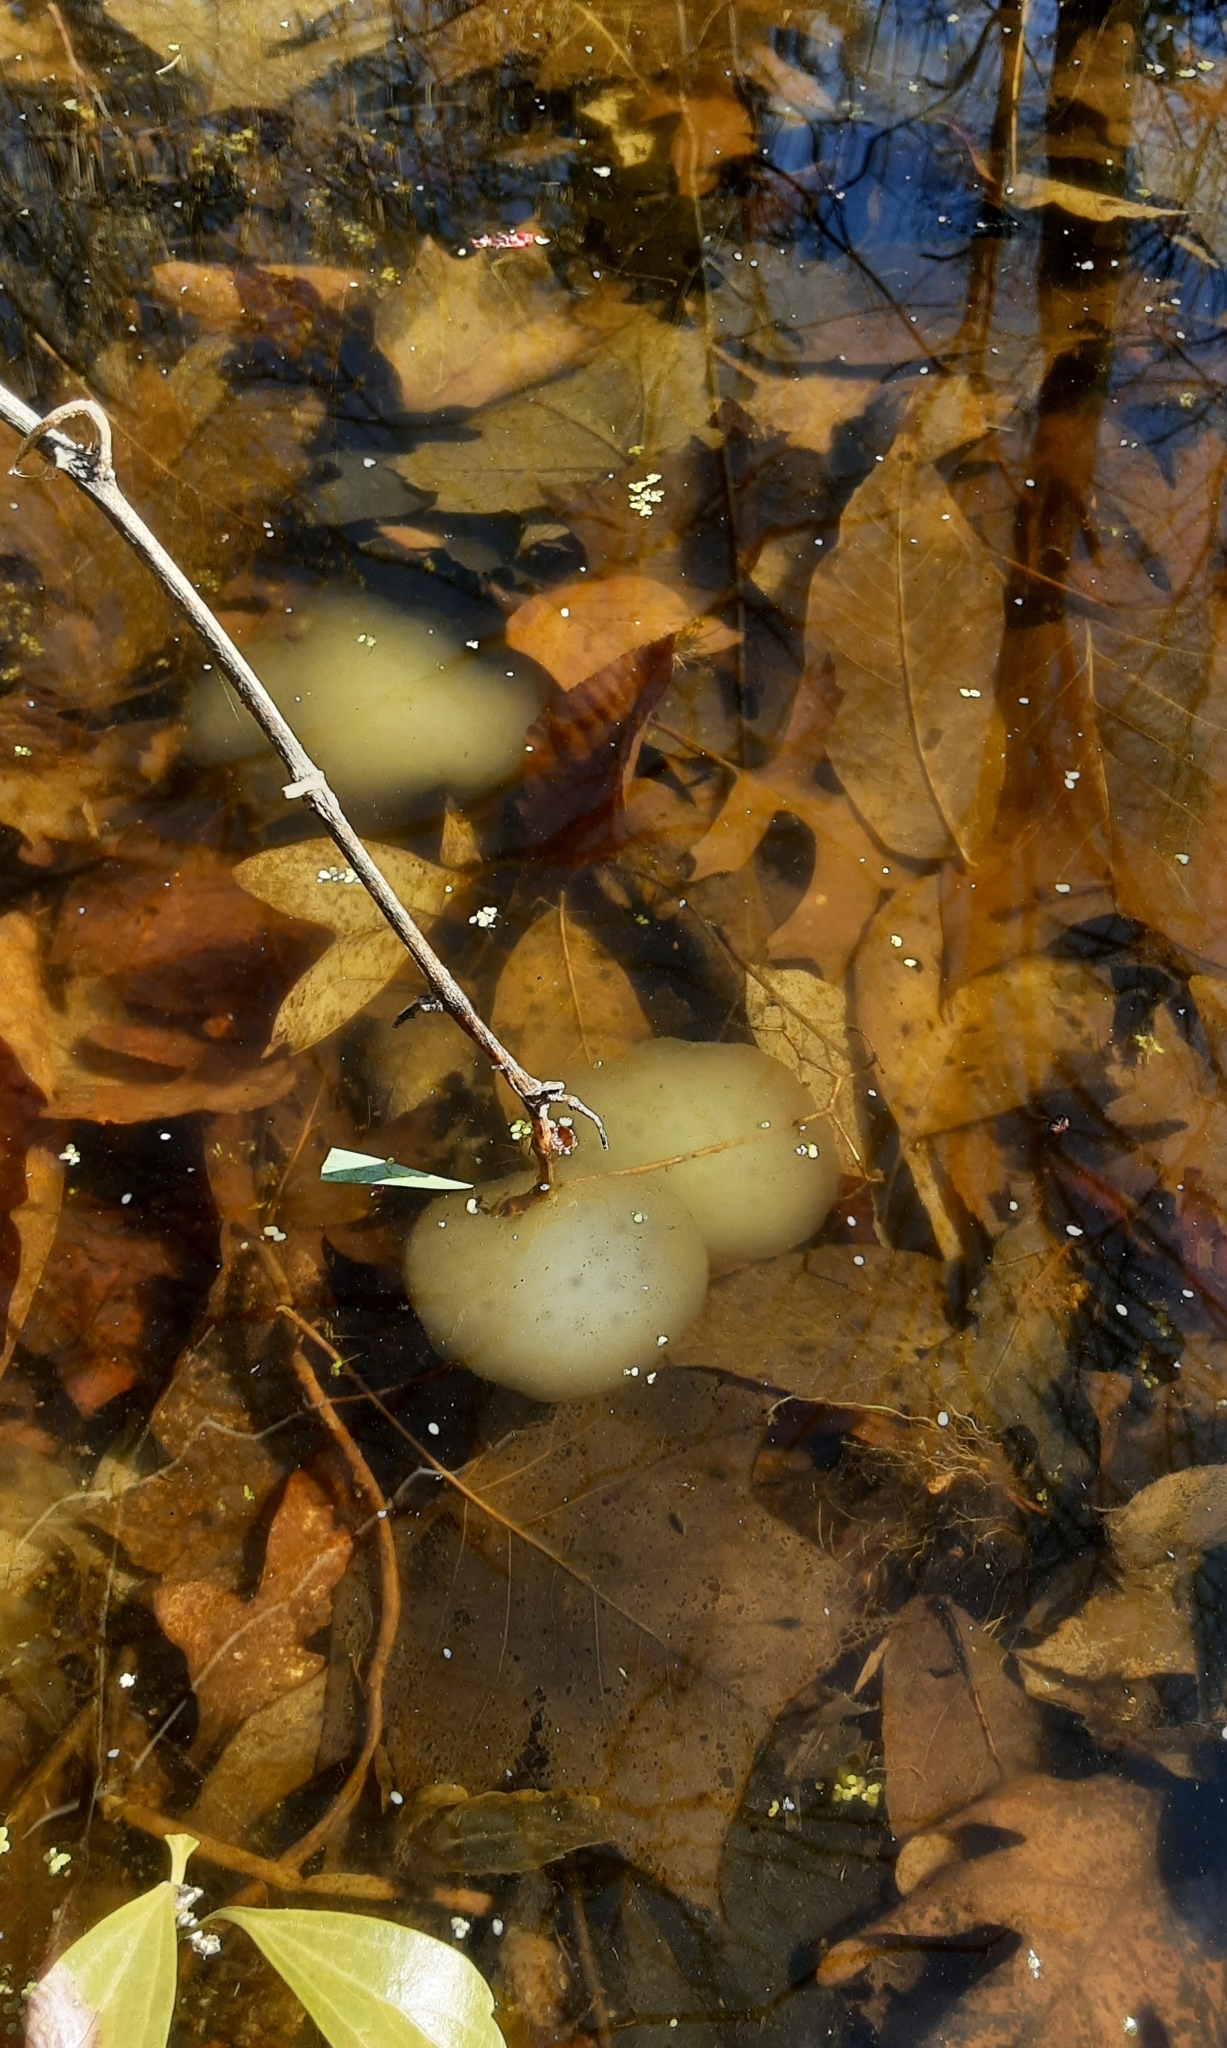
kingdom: Animalia
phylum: Chordata
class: Amphibia
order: Caudata
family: Ambystomatidae
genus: Ambystoma
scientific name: Ambystoma maculatum
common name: Spotted salamander
